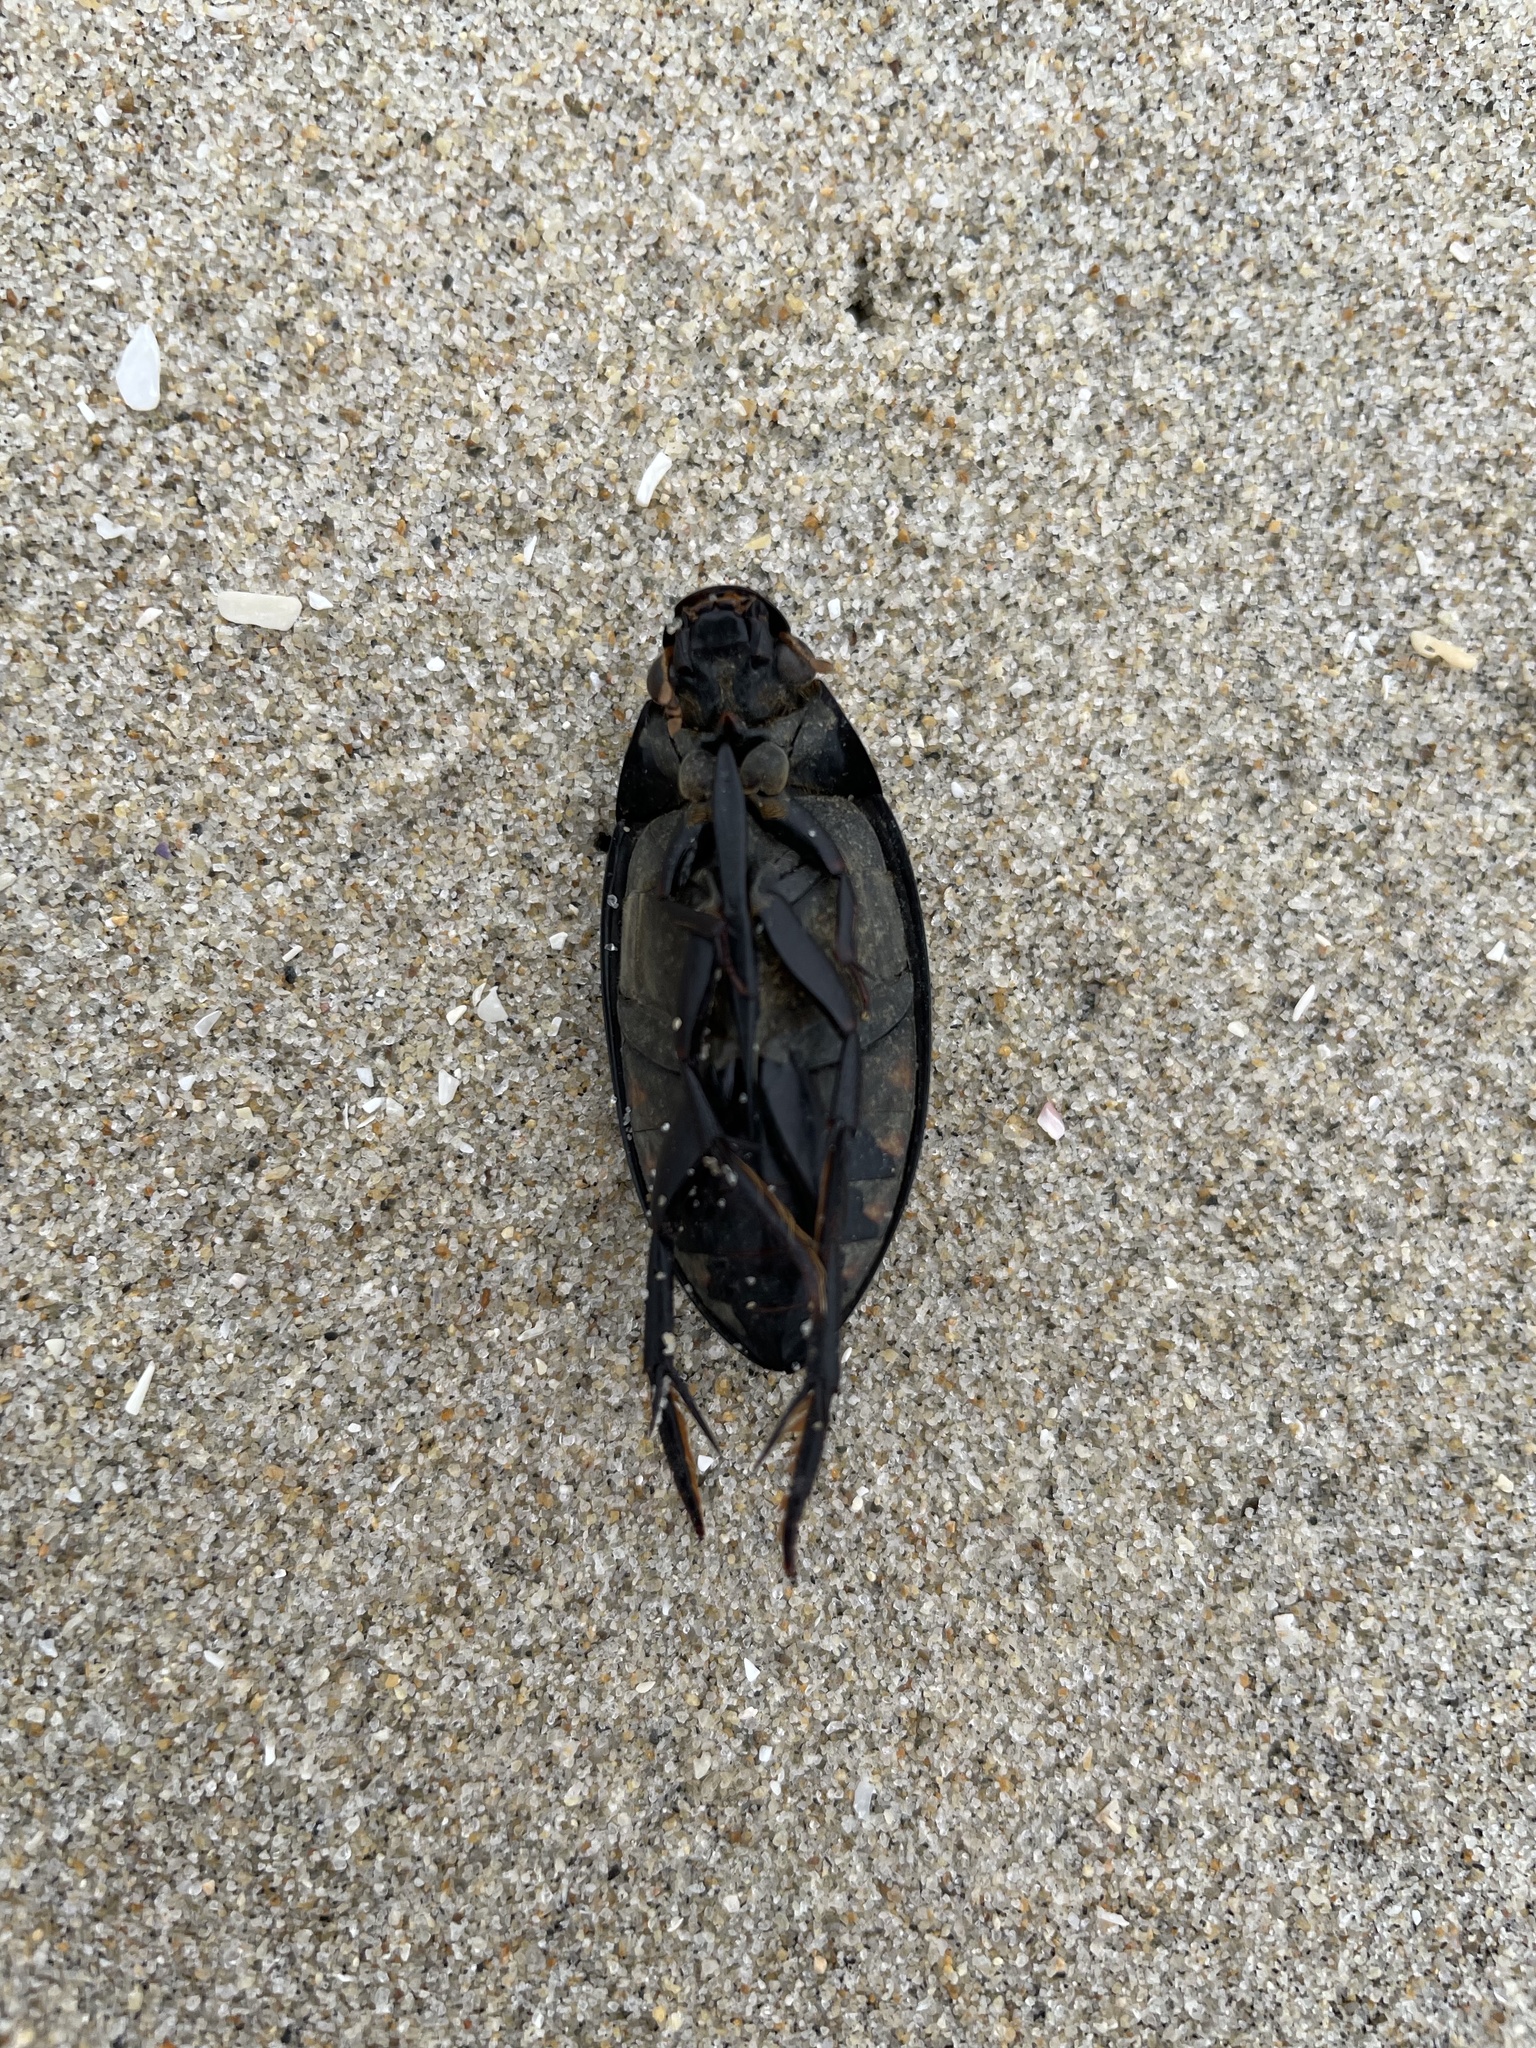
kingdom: Animalia
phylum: Arthropoda
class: Insecta
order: Coleoptera
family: Hydrophilidae
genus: Hydrophilus
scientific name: Hydrophilus triangularis
